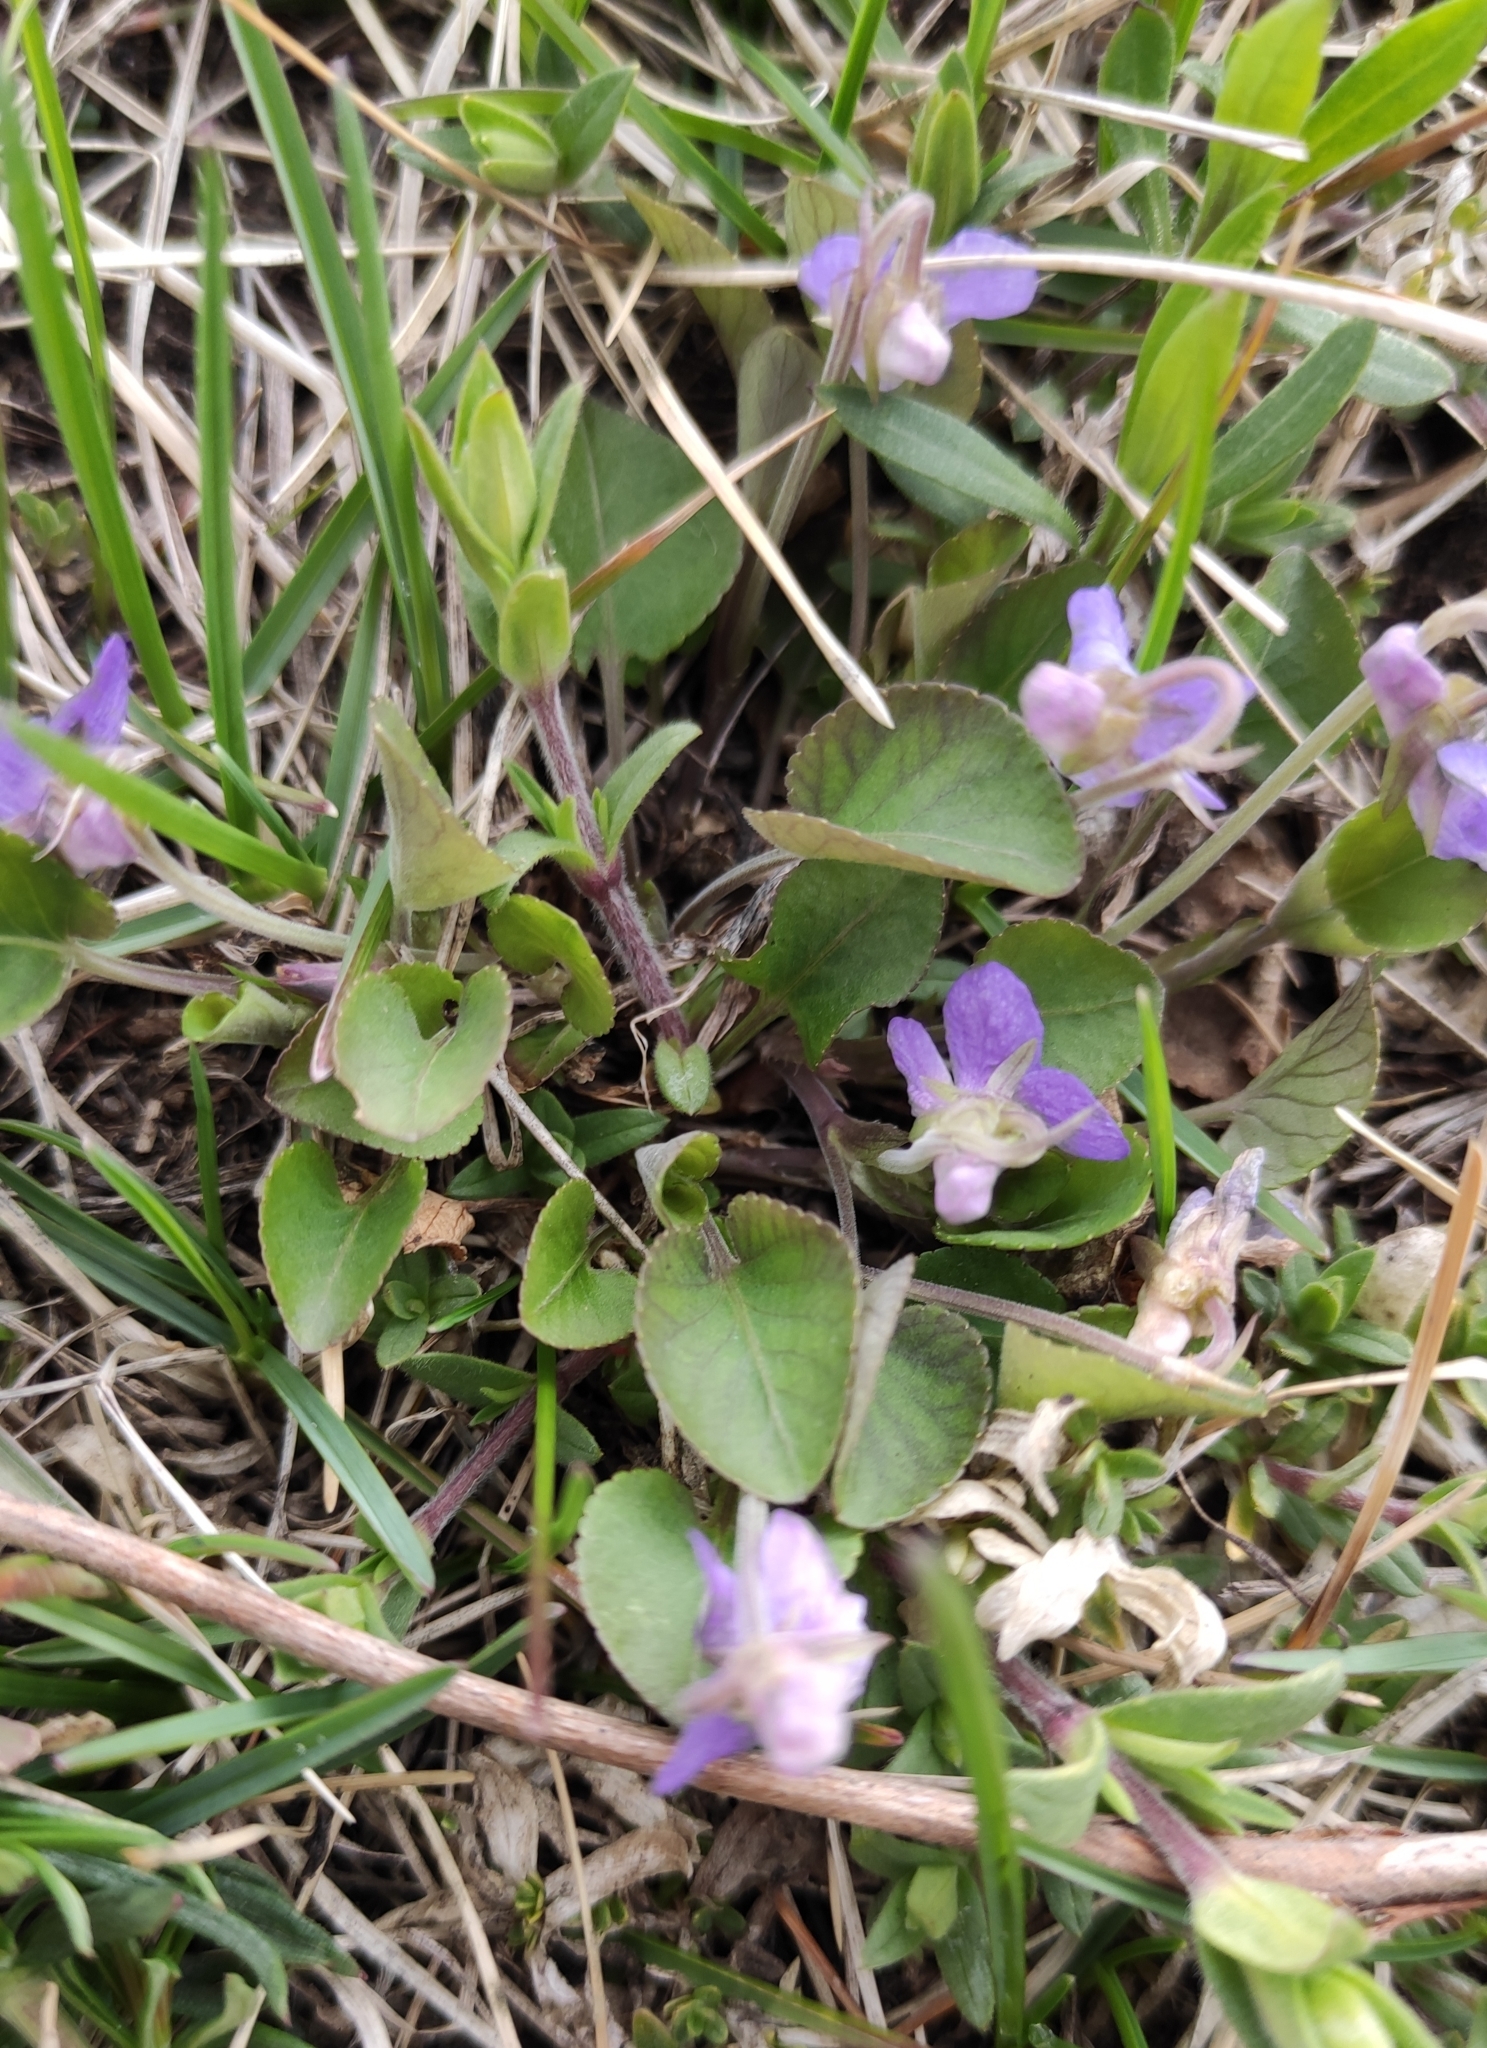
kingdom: Plantae
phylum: Tracheophyta
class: Magnoliopsida
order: Malpighiales
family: Violaceae
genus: Viola
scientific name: Viola rupestris
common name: Teesdale violet
